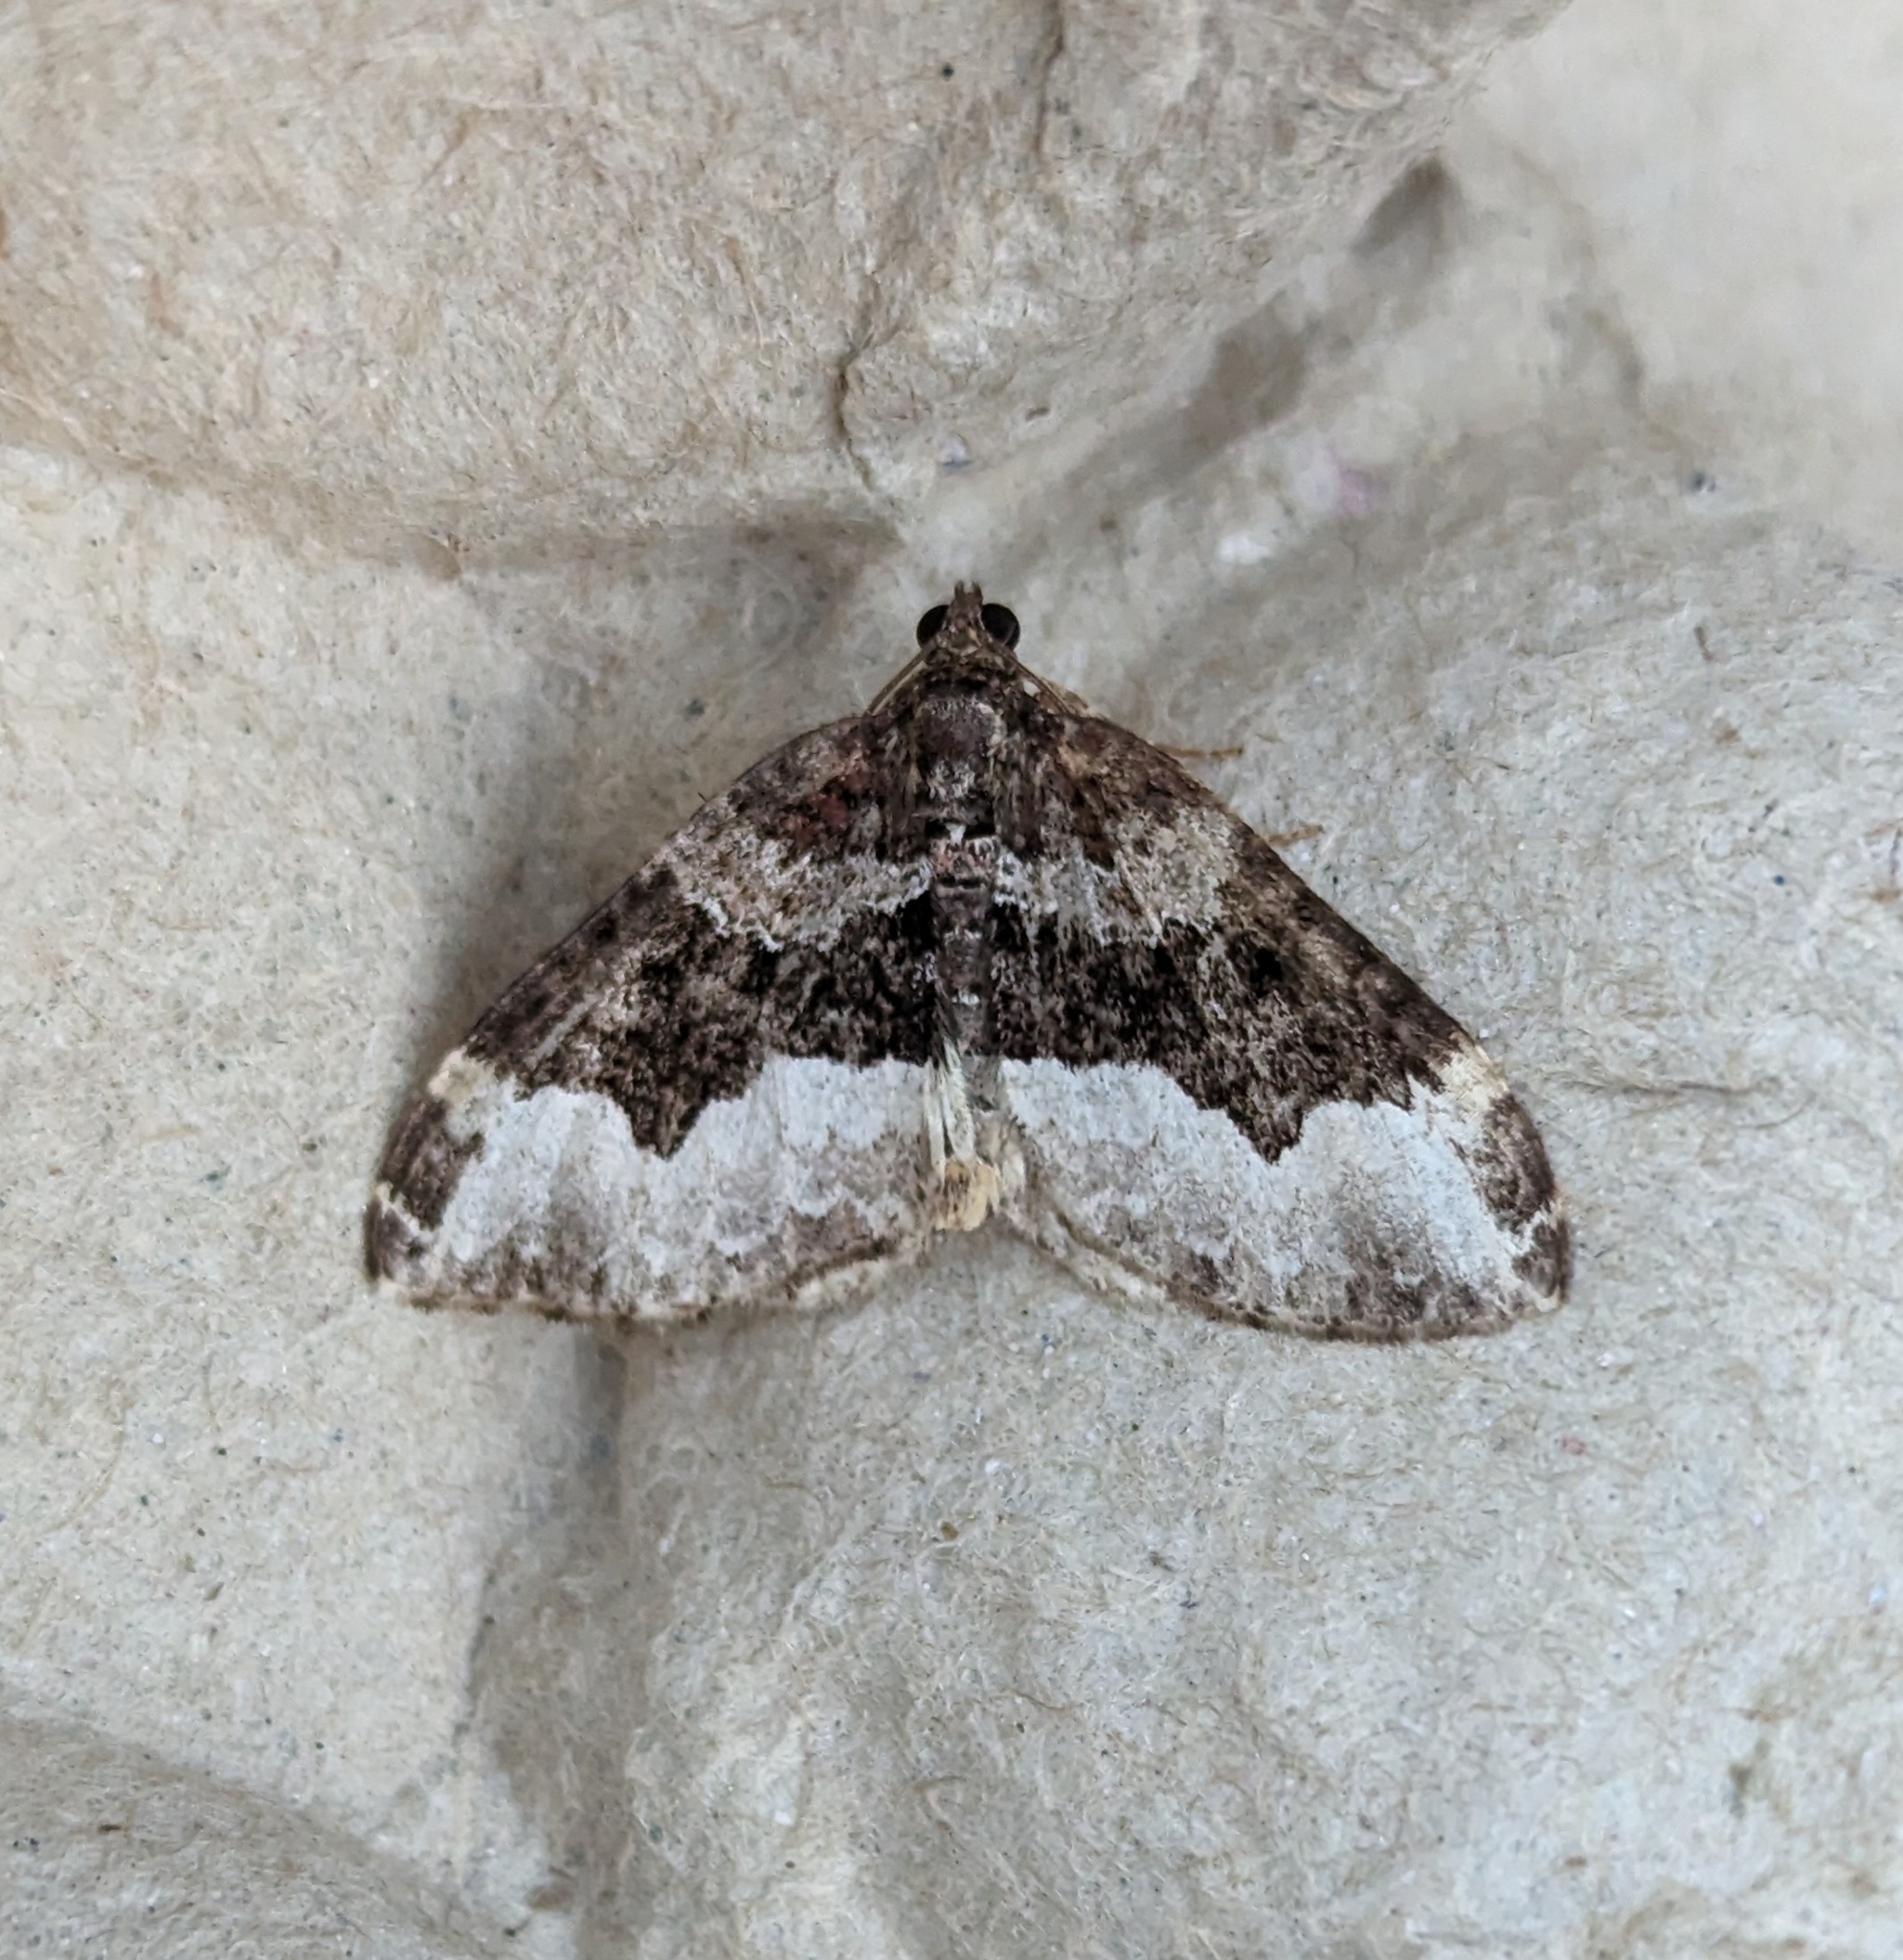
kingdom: Animalia
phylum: Arthropoda
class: Insecta
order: Lepidoptera
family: Geometridae
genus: Euphyia
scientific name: Euphyia intermediata
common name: Sharp-angled carpet
